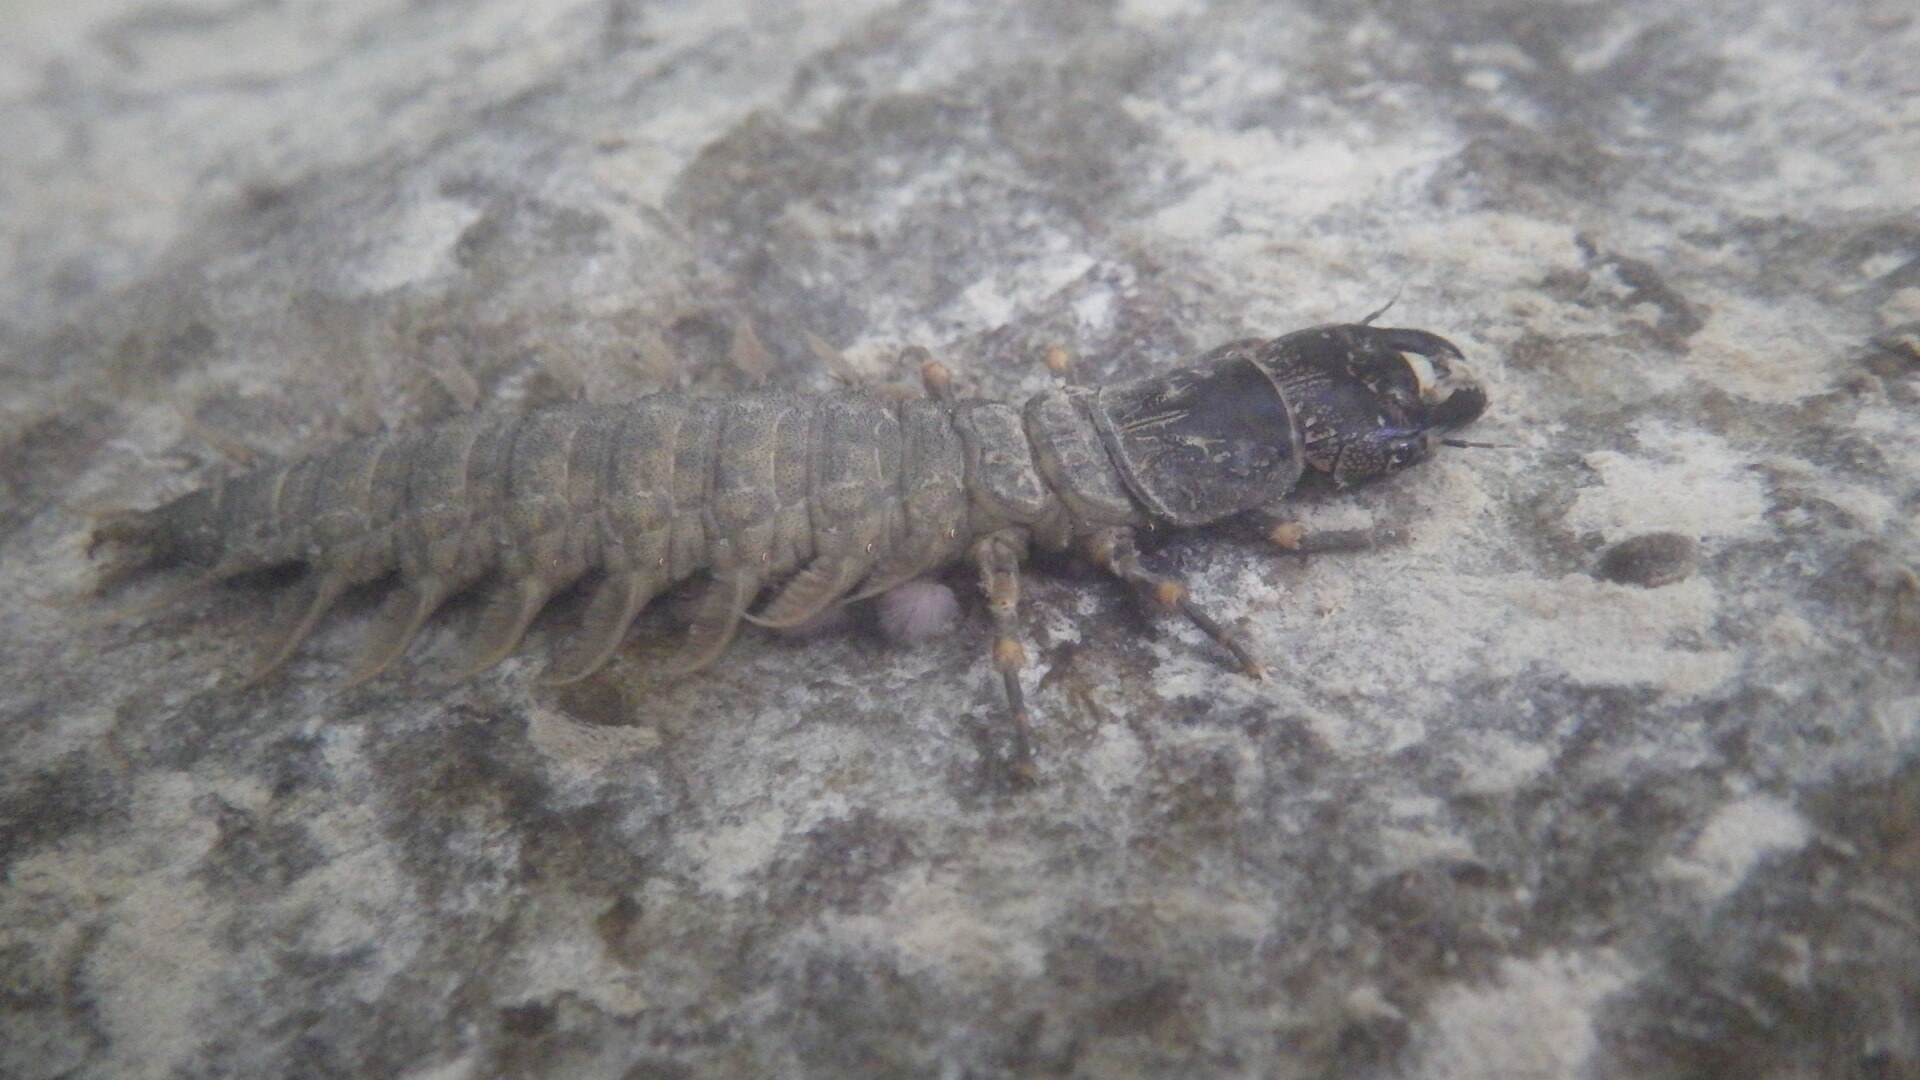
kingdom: Animalia
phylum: Arthropoda
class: Insecta
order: Megaloptera
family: Corydalidae
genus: Corydalus
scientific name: Corydalus cornutus
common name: Dobsonfly
